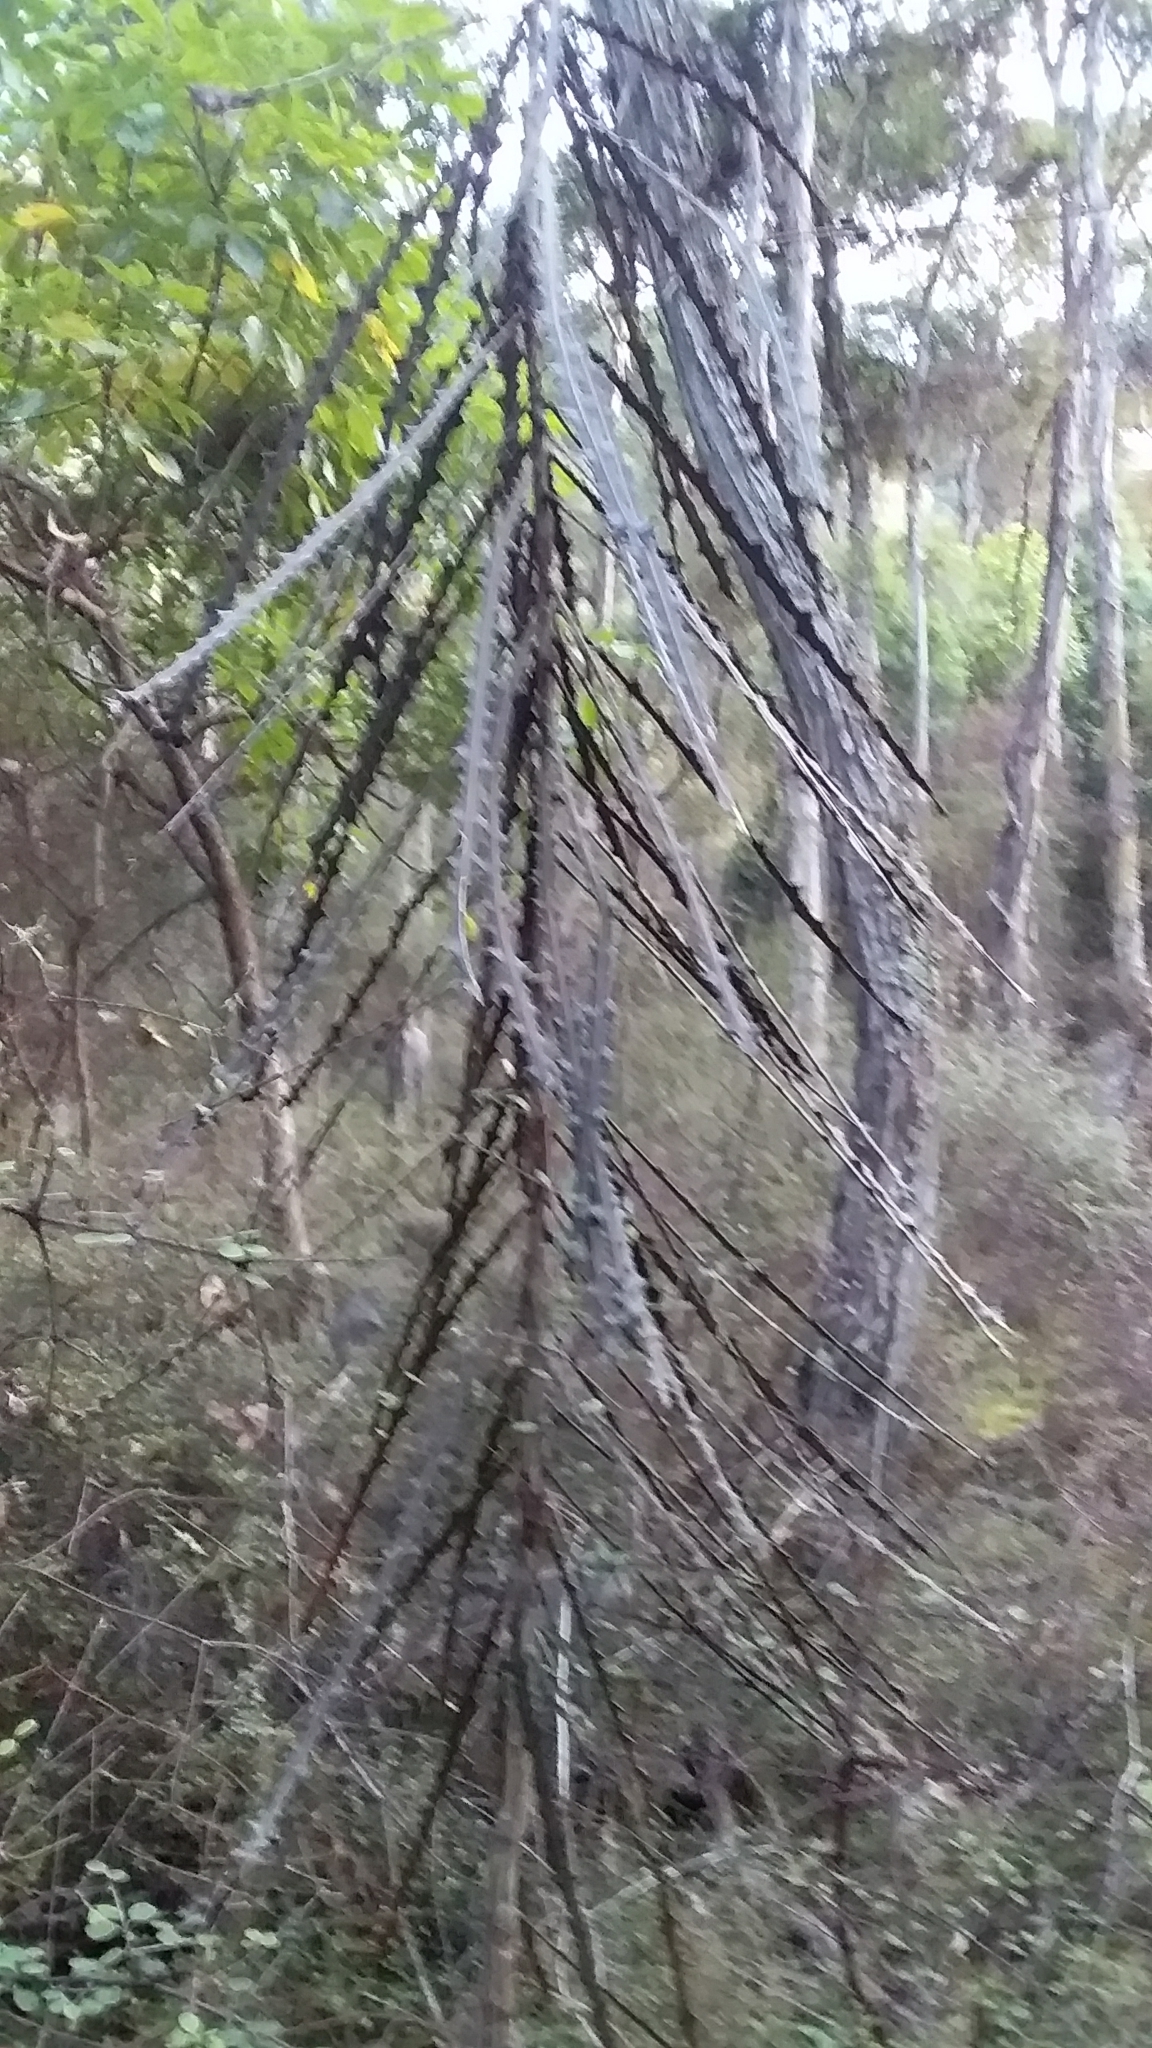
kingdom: Plantae
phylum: Tracheophyta
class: Magnoliopsida
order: Apiales
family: Araliaceae
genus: Pseudopanax
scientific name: Pseudopanax ferox
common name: Fierce lancewood
